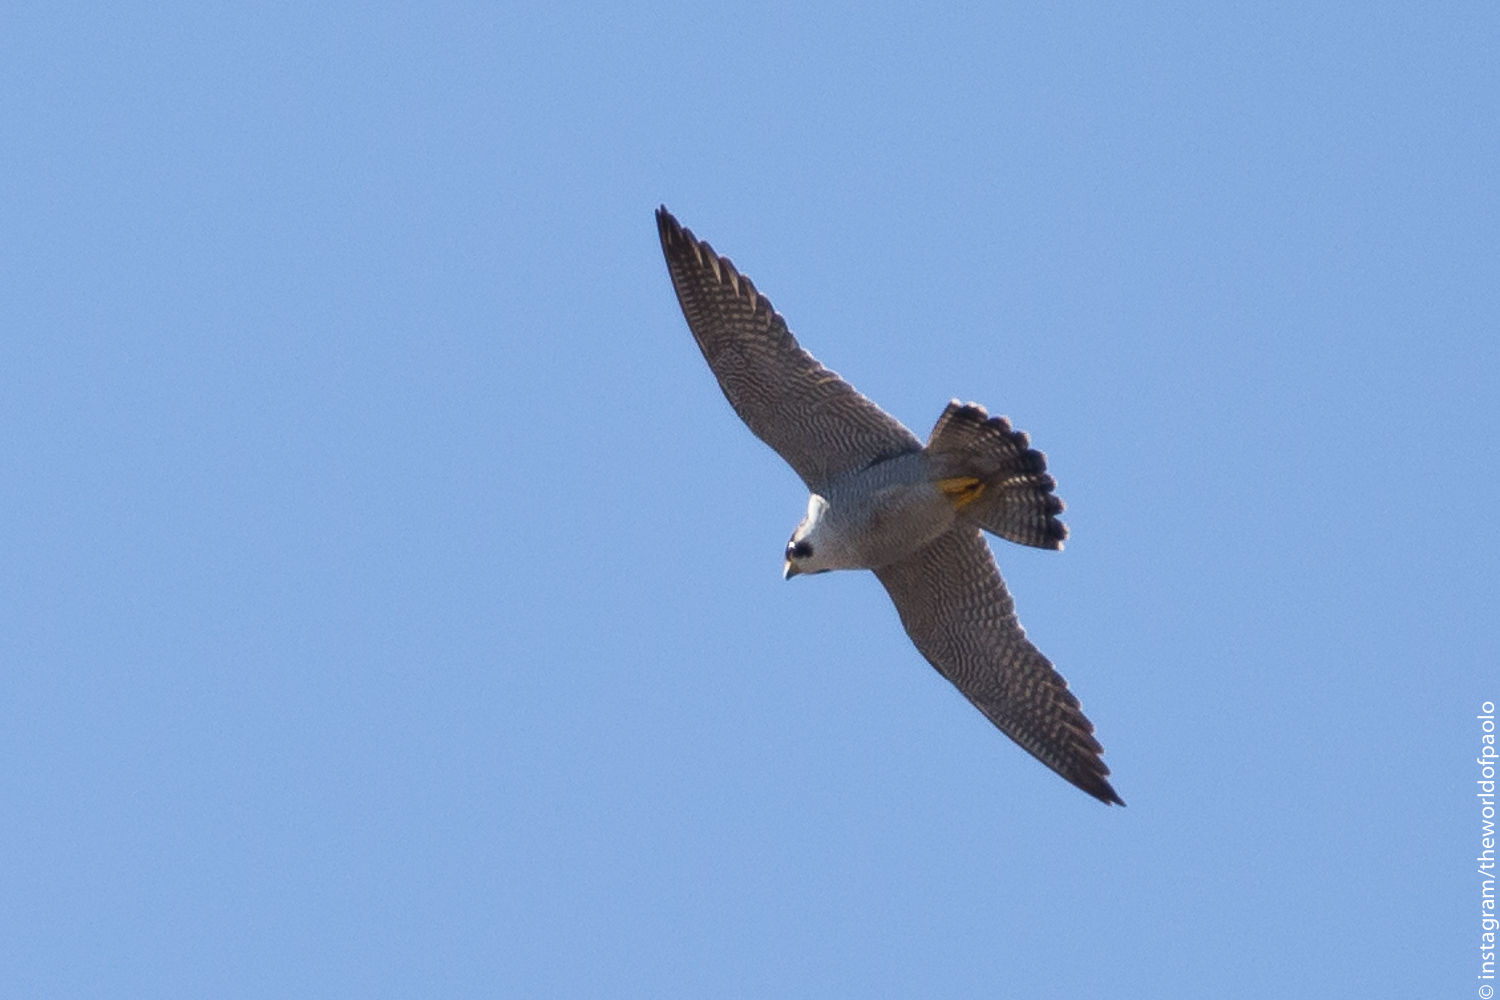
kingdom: Animalia
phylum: Chordata
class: Aves
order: Falconiformes
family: Falconidae
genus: Falco
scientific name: Falco peregrinus
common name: Peregrine falcon
